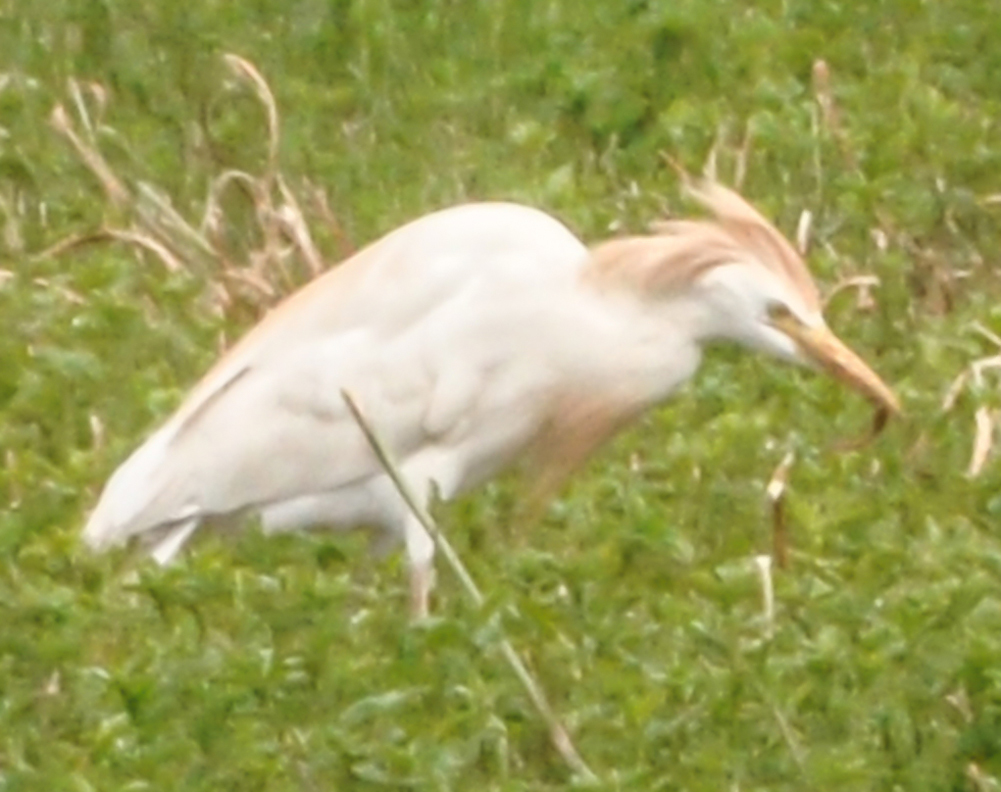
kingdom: Animalia
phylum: Chordata
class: Aves
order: Pelecaniformes
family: Ardeidae
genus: Bubulcus
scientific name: Bubulcus ibis
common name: Cattle egret
